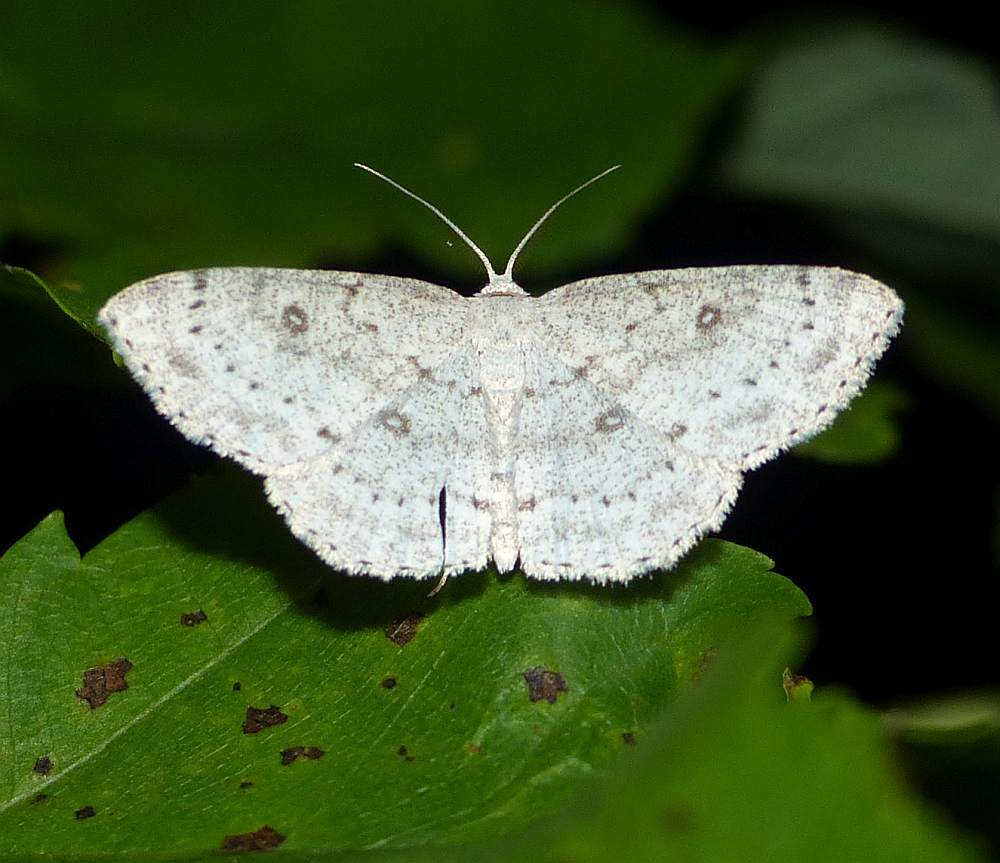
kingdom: Animalia
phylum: Arthropoda
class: Insecta
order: Lepidoptera
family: Geometridae
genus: Cyclophora
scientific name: Cyclophora pendulinaria
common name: Sweet fern geometer
